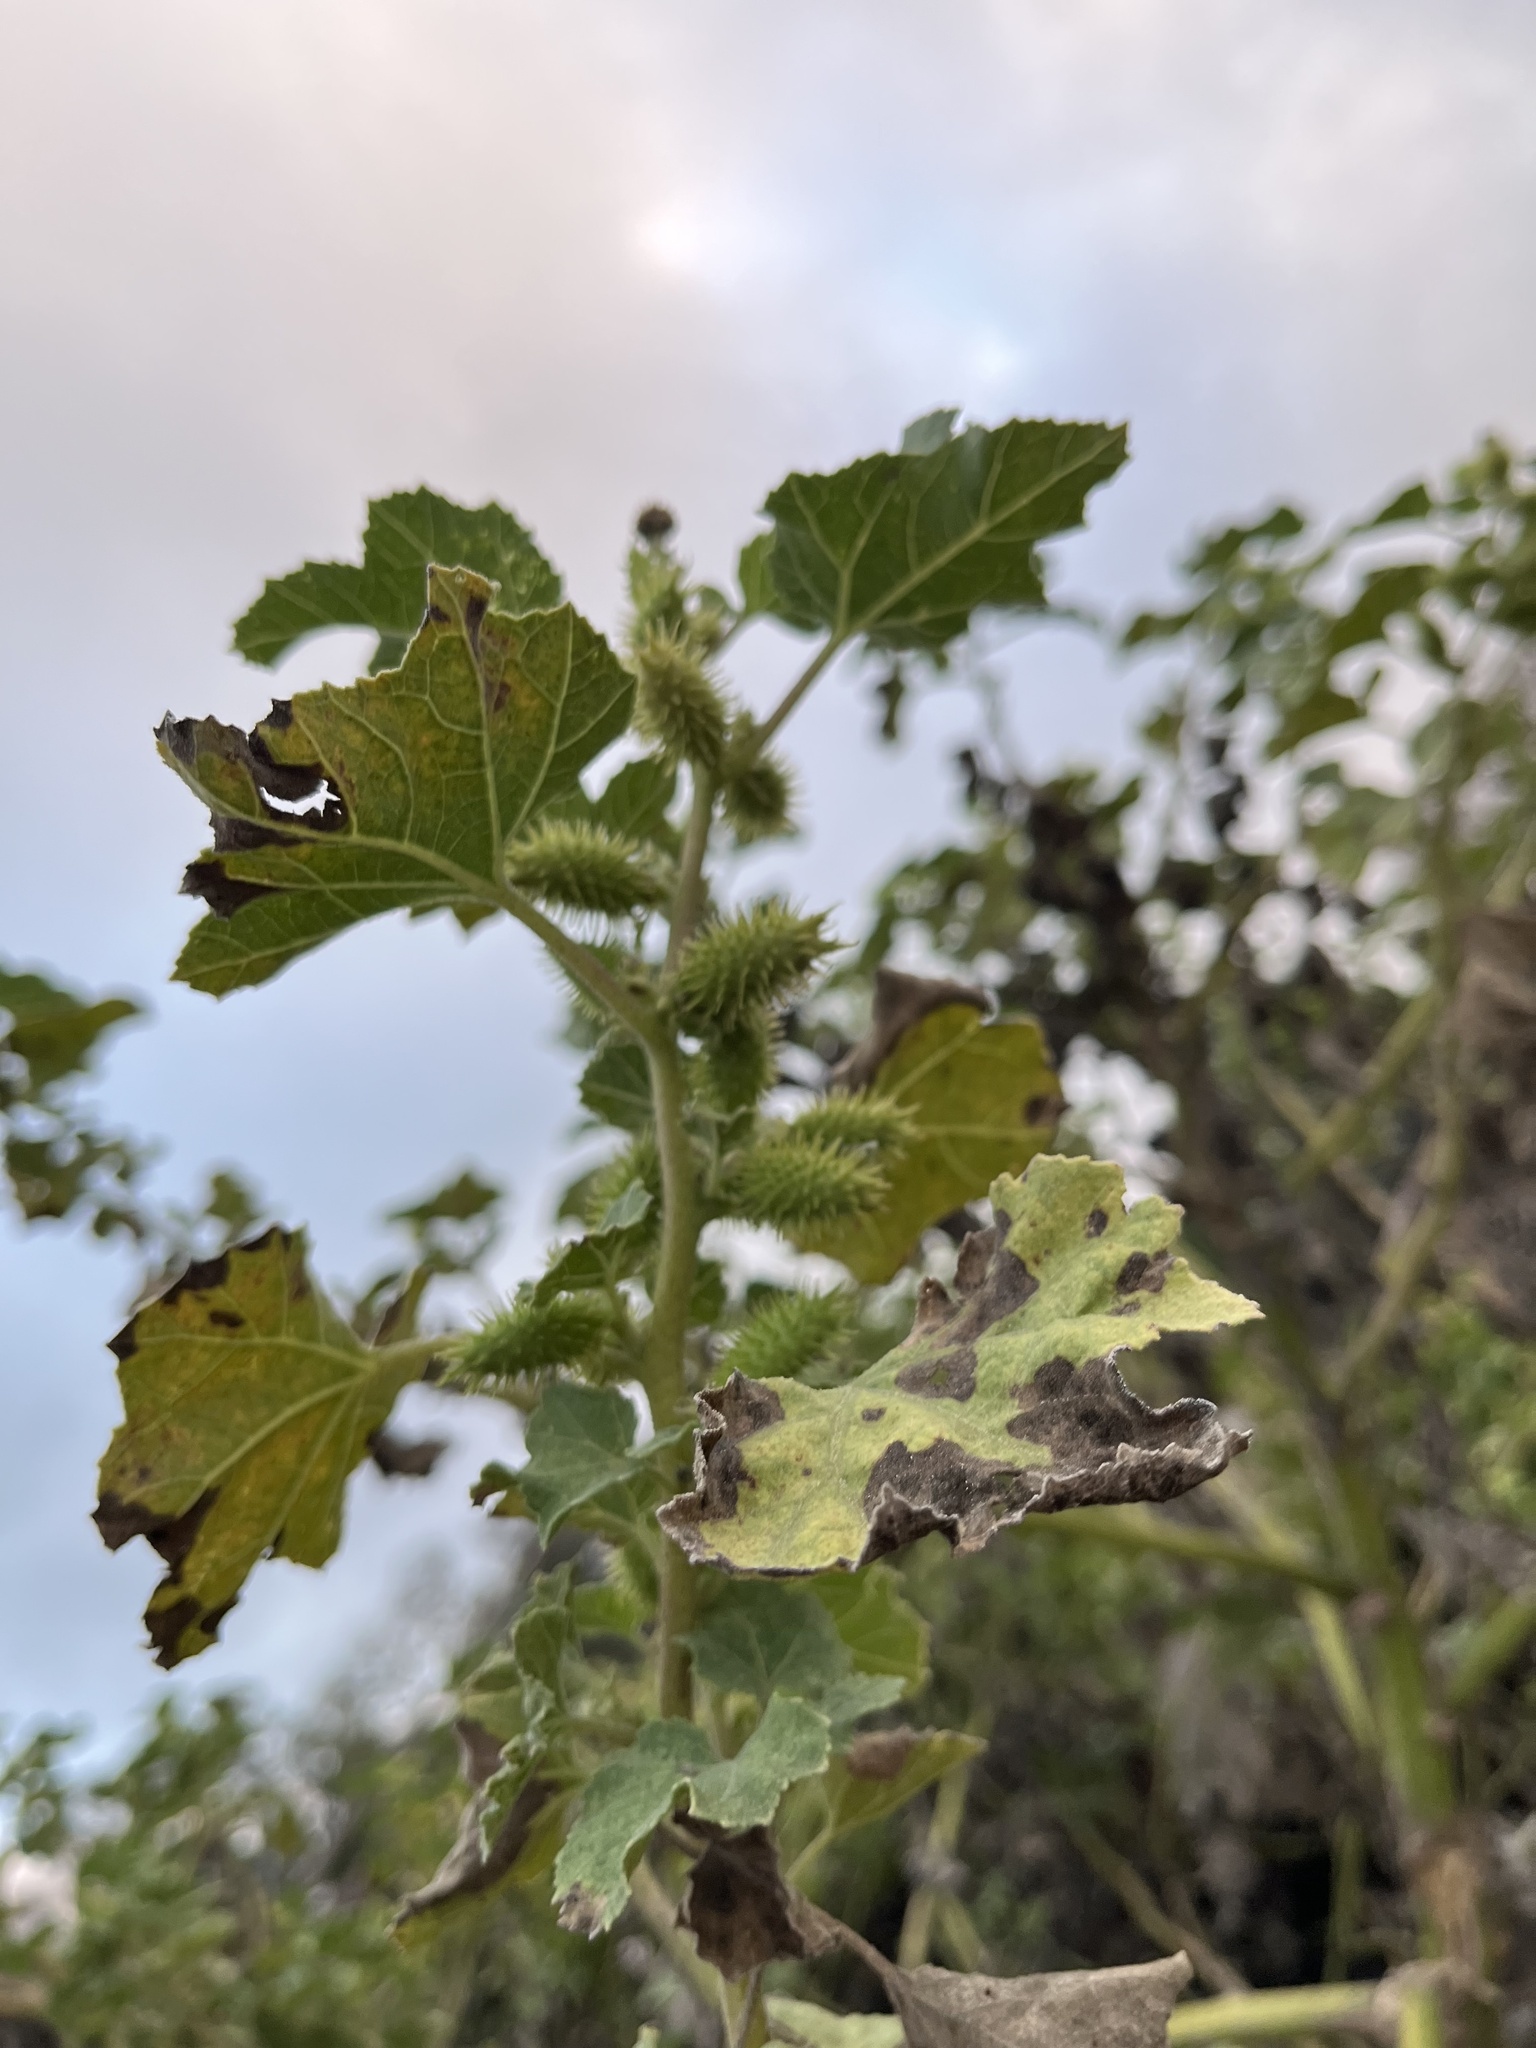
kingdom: Plantae
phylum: Tracheophyta
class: Magnoliopsida
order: Asterales
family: Asteraceae
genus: Xanthium
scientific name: Xanthium strumarium
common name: Rough cocklebur
